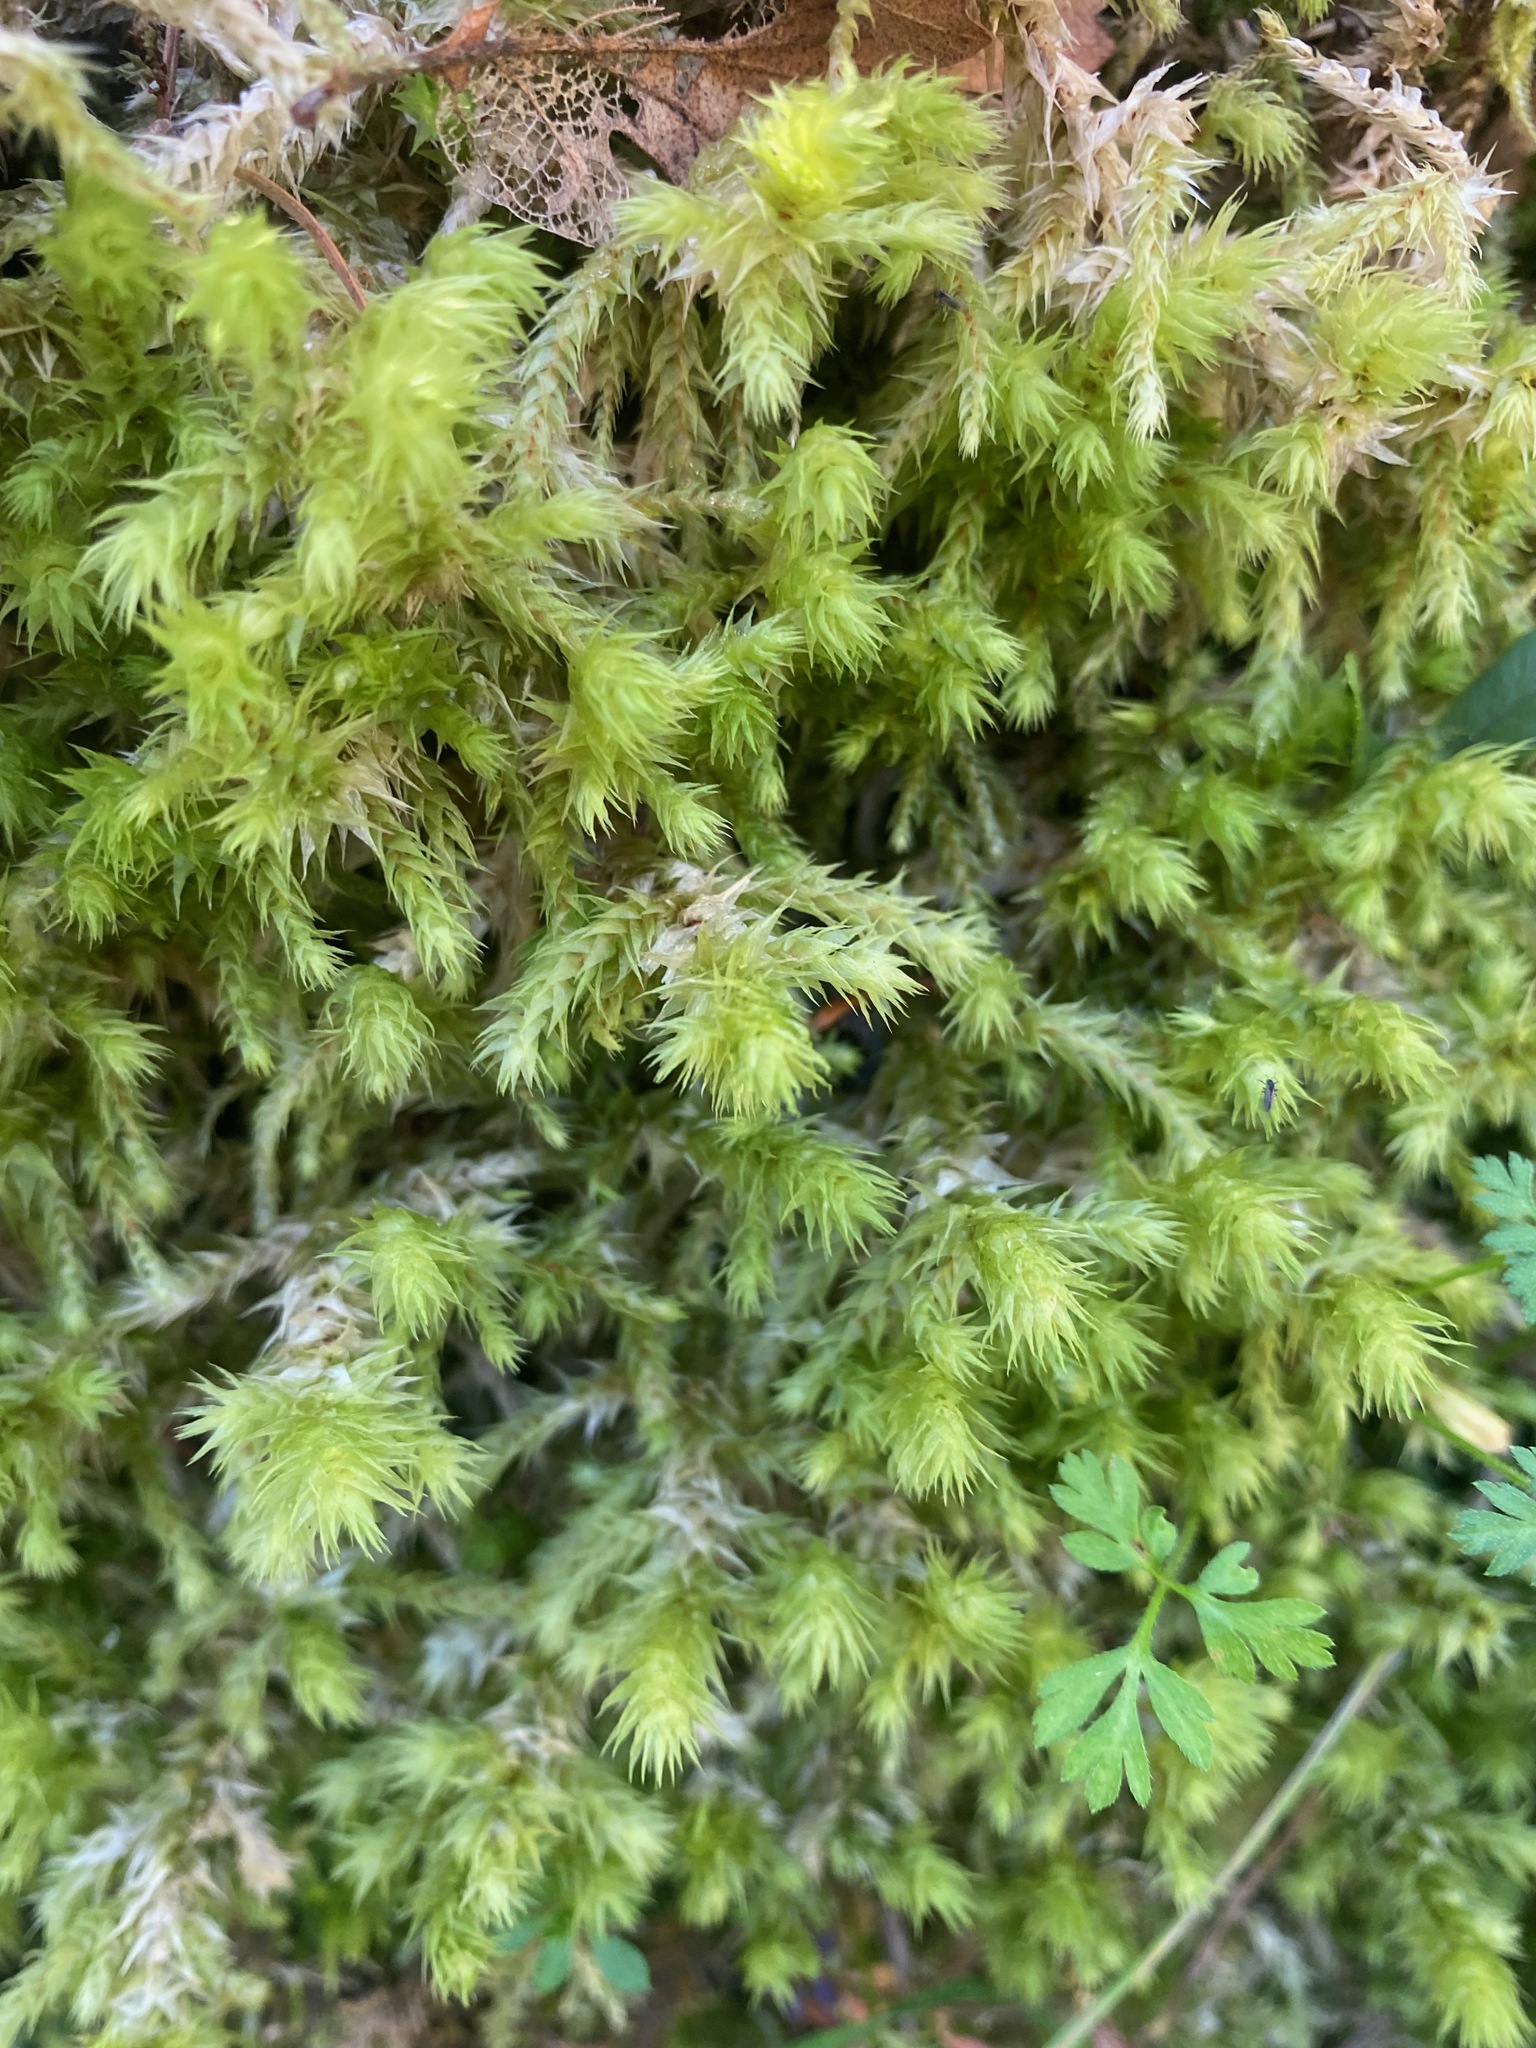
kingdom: Plantae
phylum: Bryophyta
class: Bryopsida
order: Hypnales
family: Hylocomiaceae
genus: Hylocomiadelphus
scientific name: Hylocomiadelphus triquetrus
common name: Rough goose neck moss
